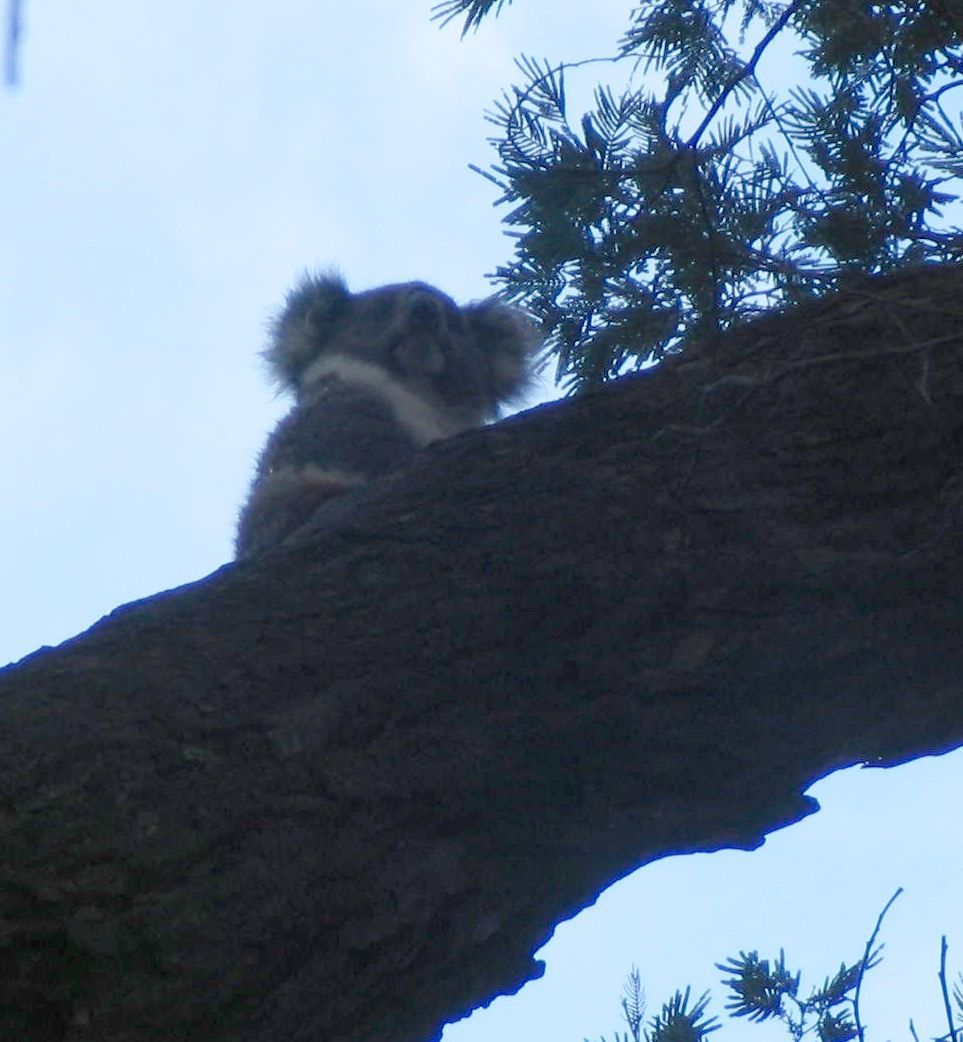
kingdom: Animalia
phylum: Chordata
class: Mammalia
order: Diprotodontia
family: Phascolarctidae
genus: Phascolarctos
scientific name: Phascolarctos cinereus
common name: Koala
